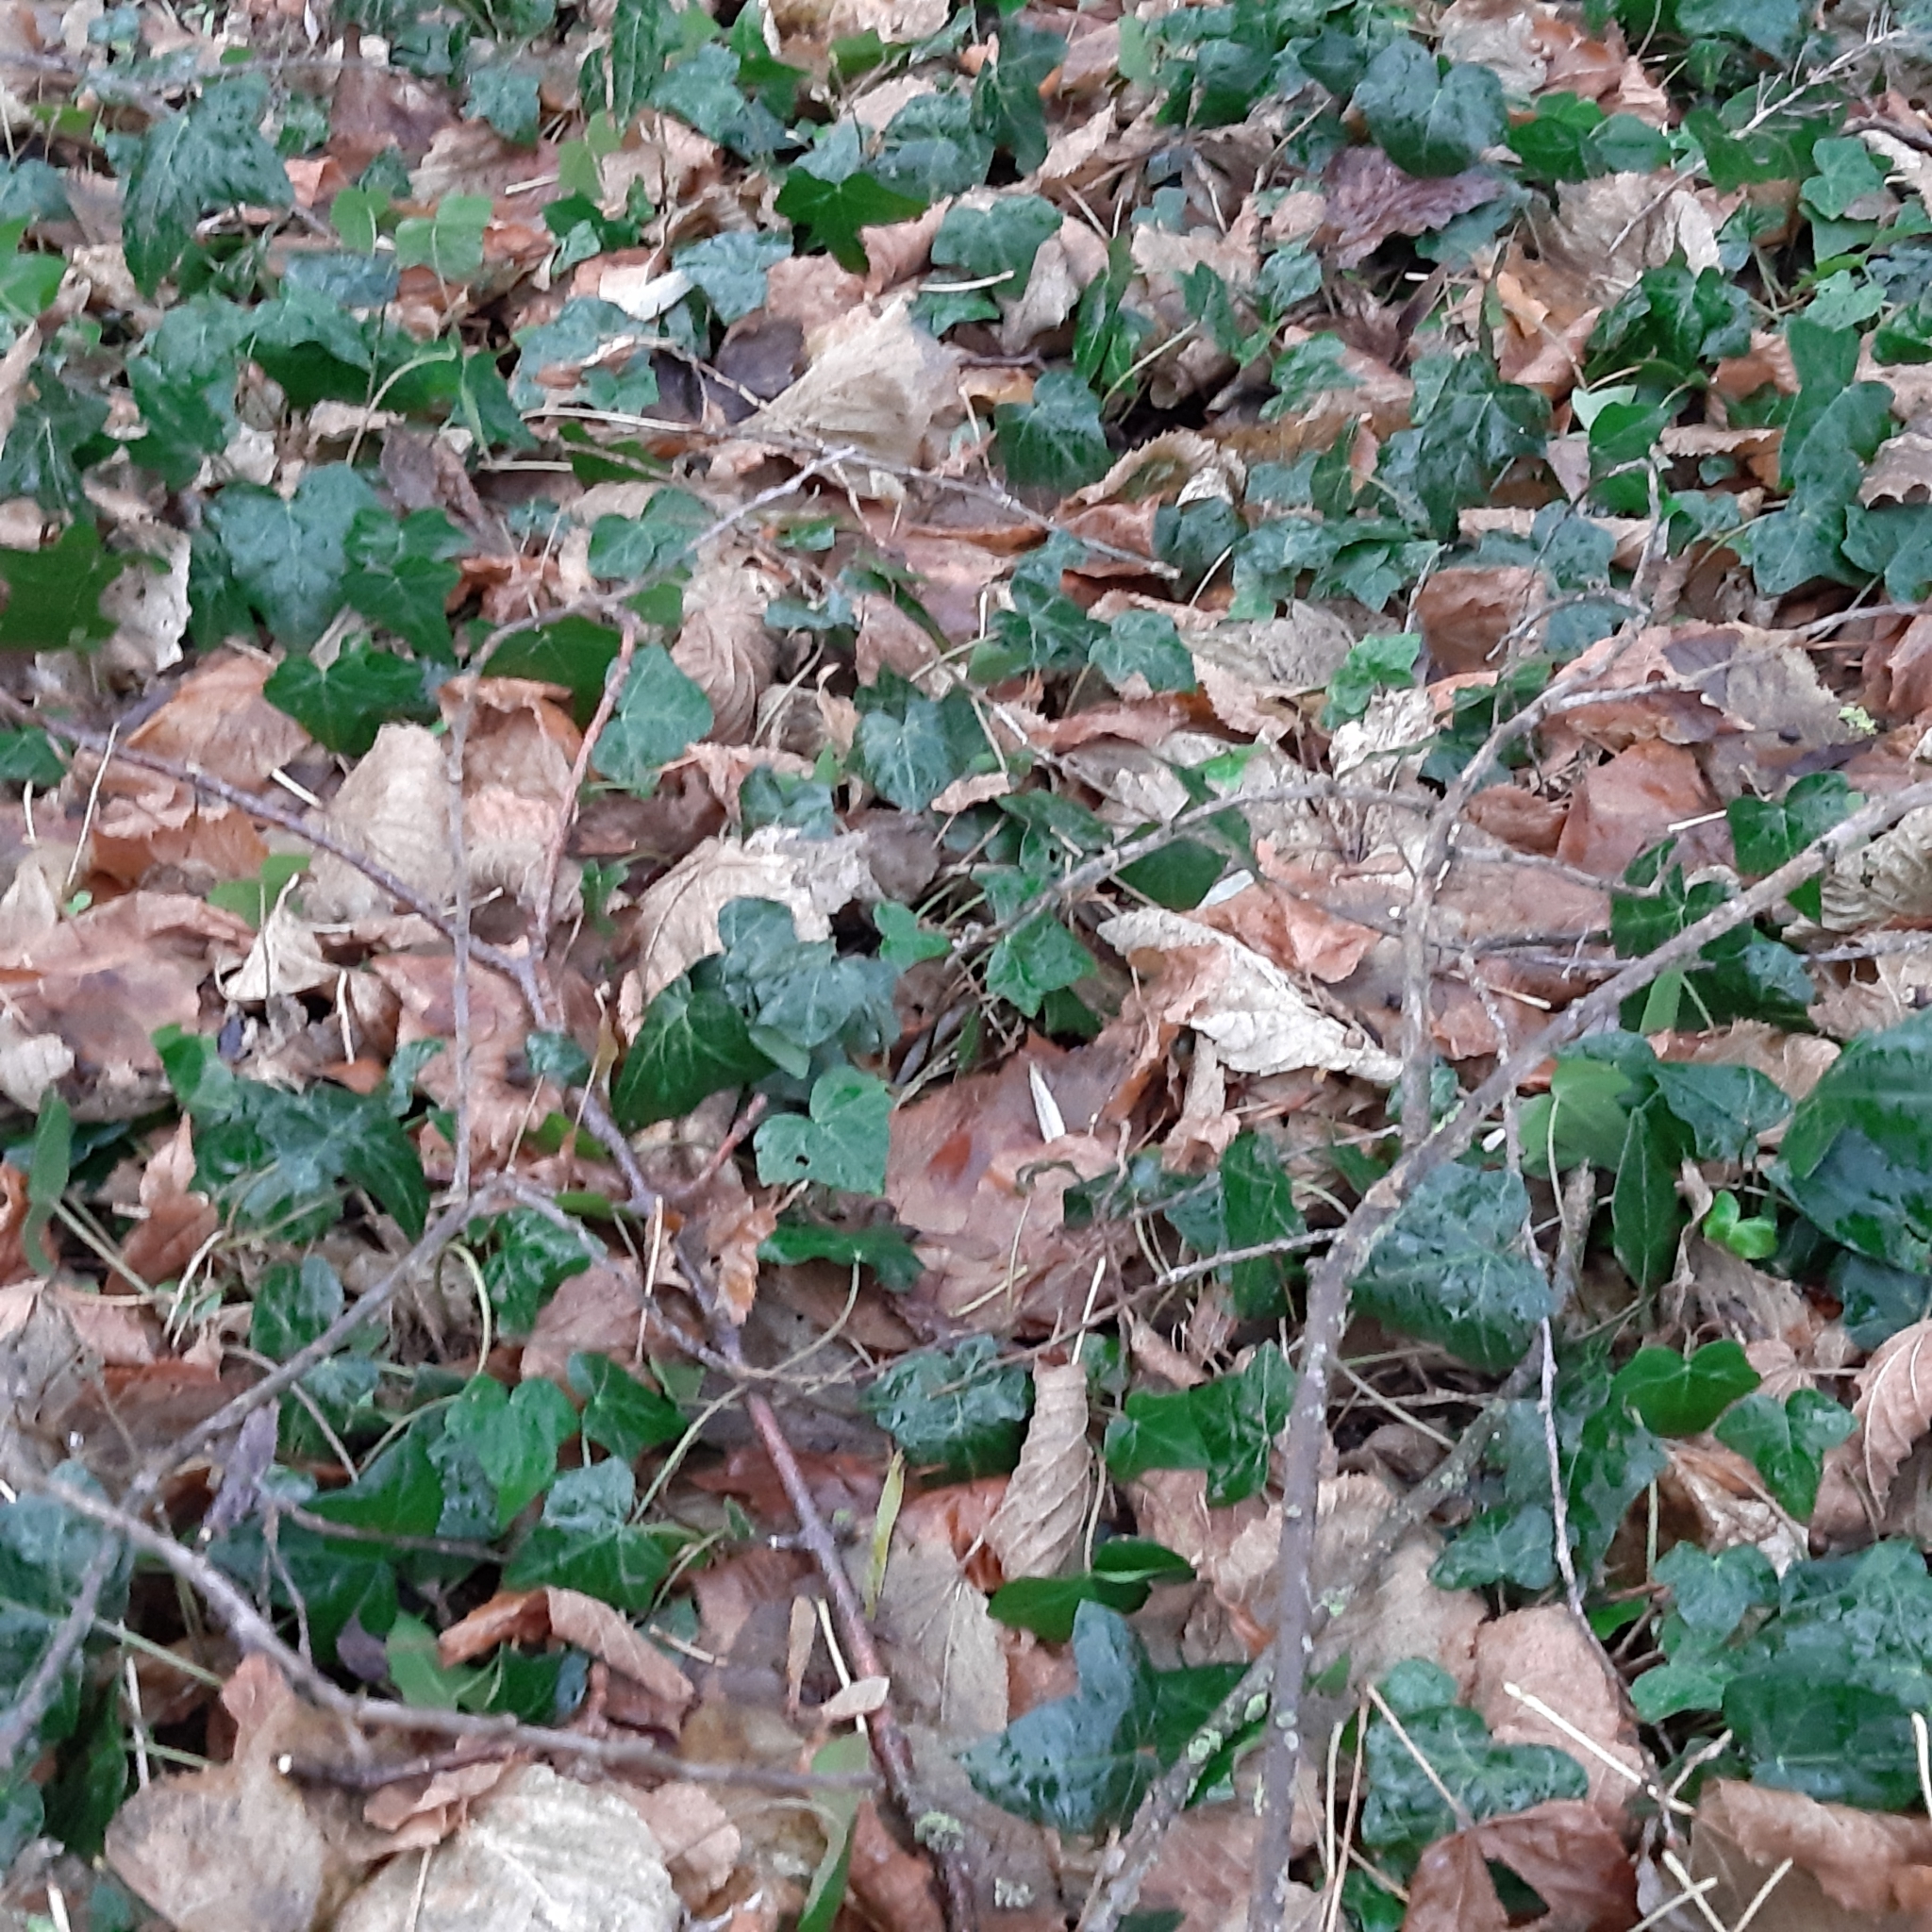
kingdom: Plantae
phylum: Tracheophyta
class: Magnoliopsida
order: Apiales
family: Araliaceae
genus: Hedera
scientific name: Hedera helix
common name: Ivy
